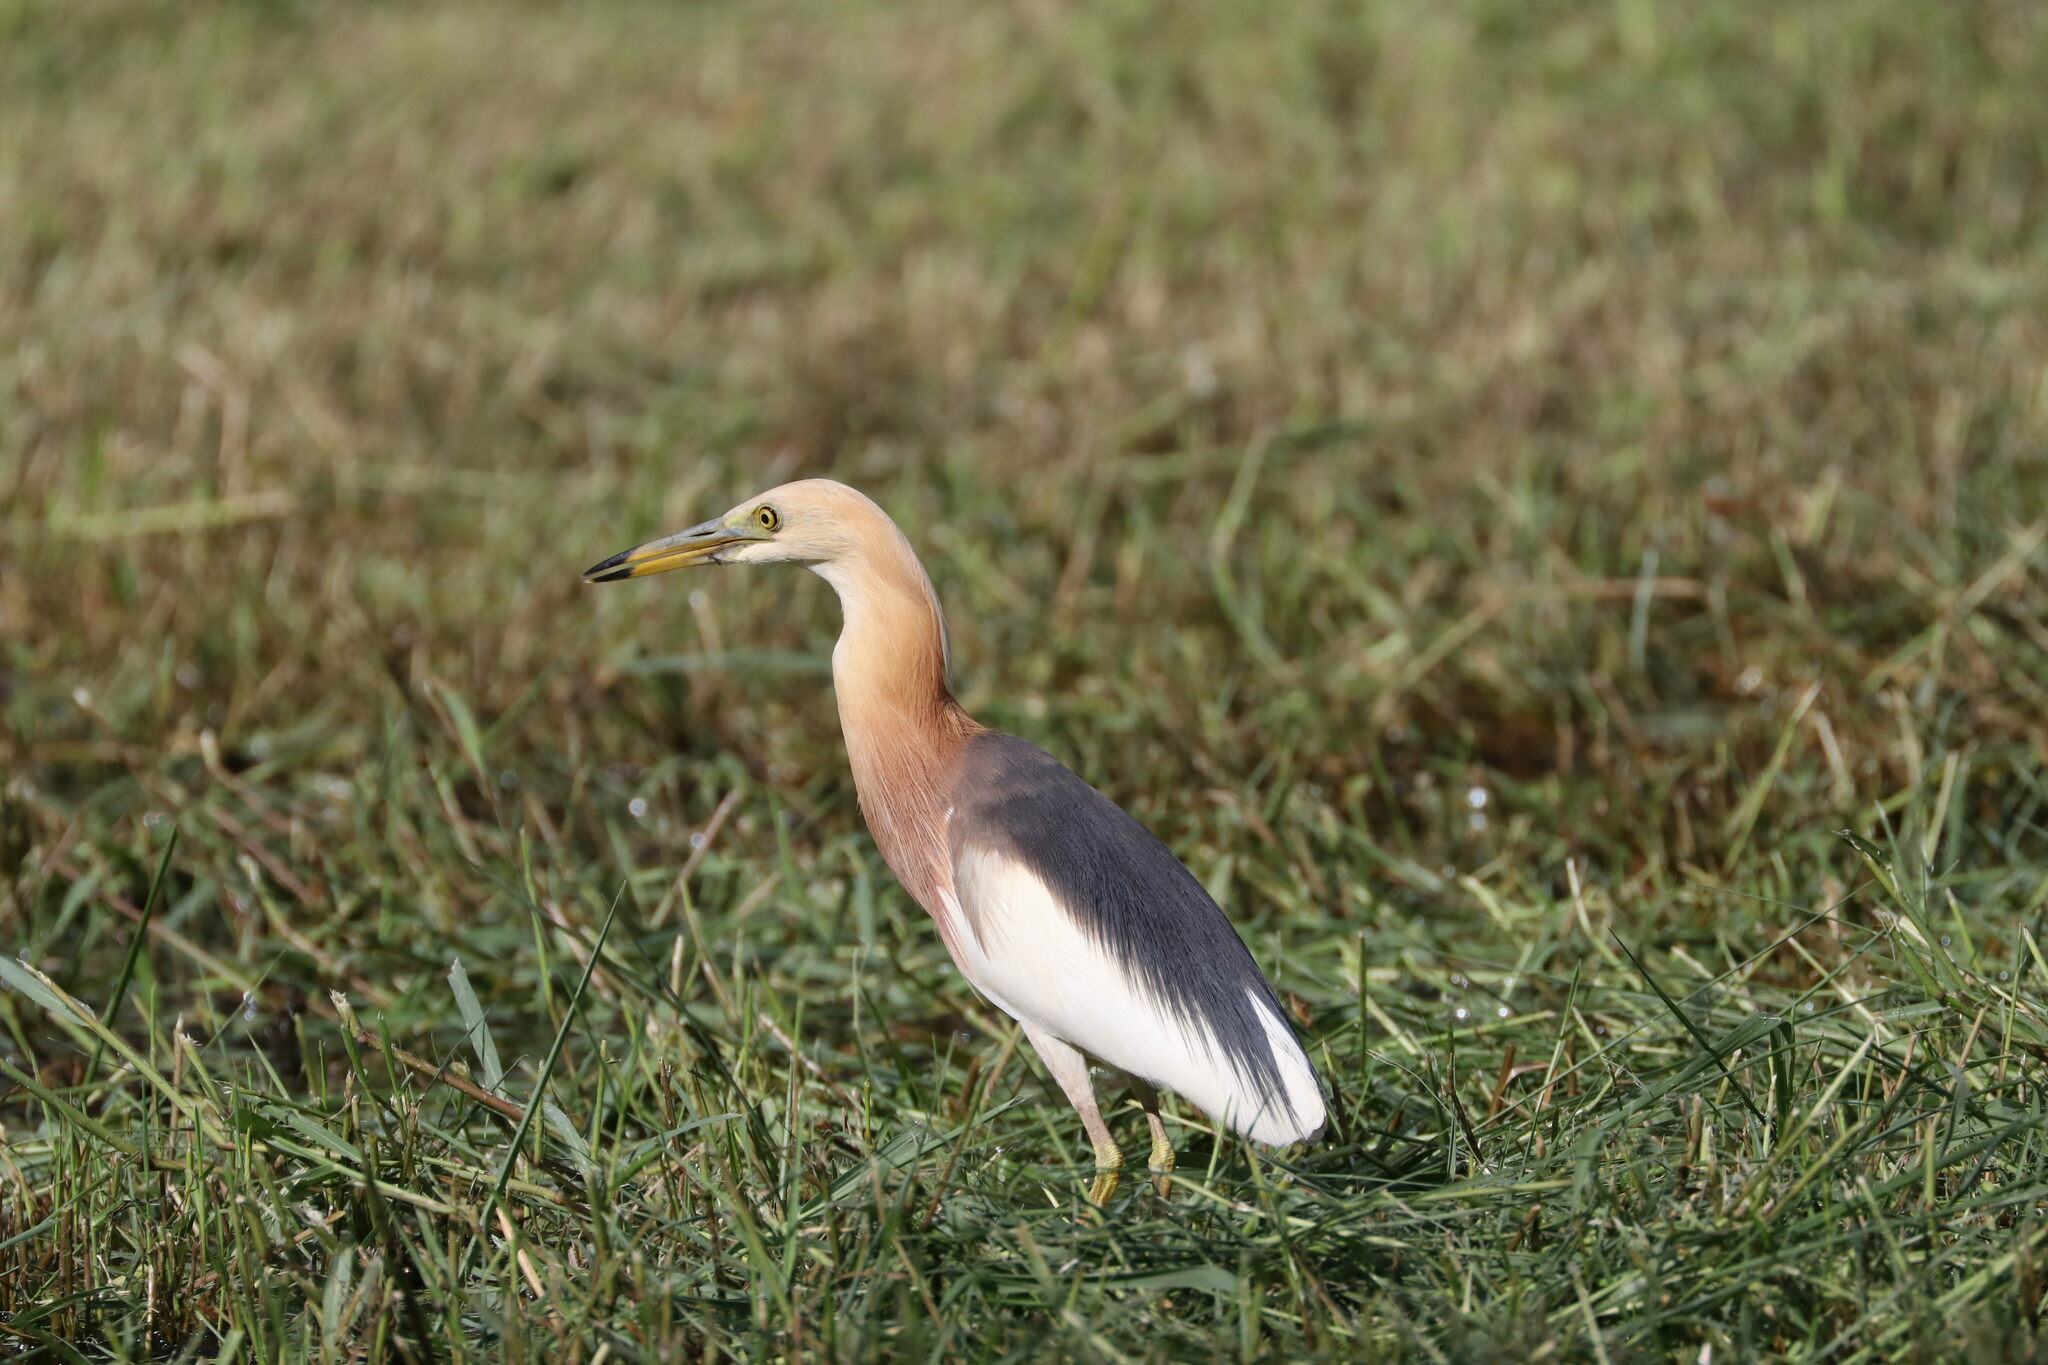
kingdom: Animalia
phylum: Chordata
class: Aves
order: Pelecaniformes
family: Ardeidae
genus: Ardeola
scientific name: Ardeola speciosa
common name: Javan pond heron
